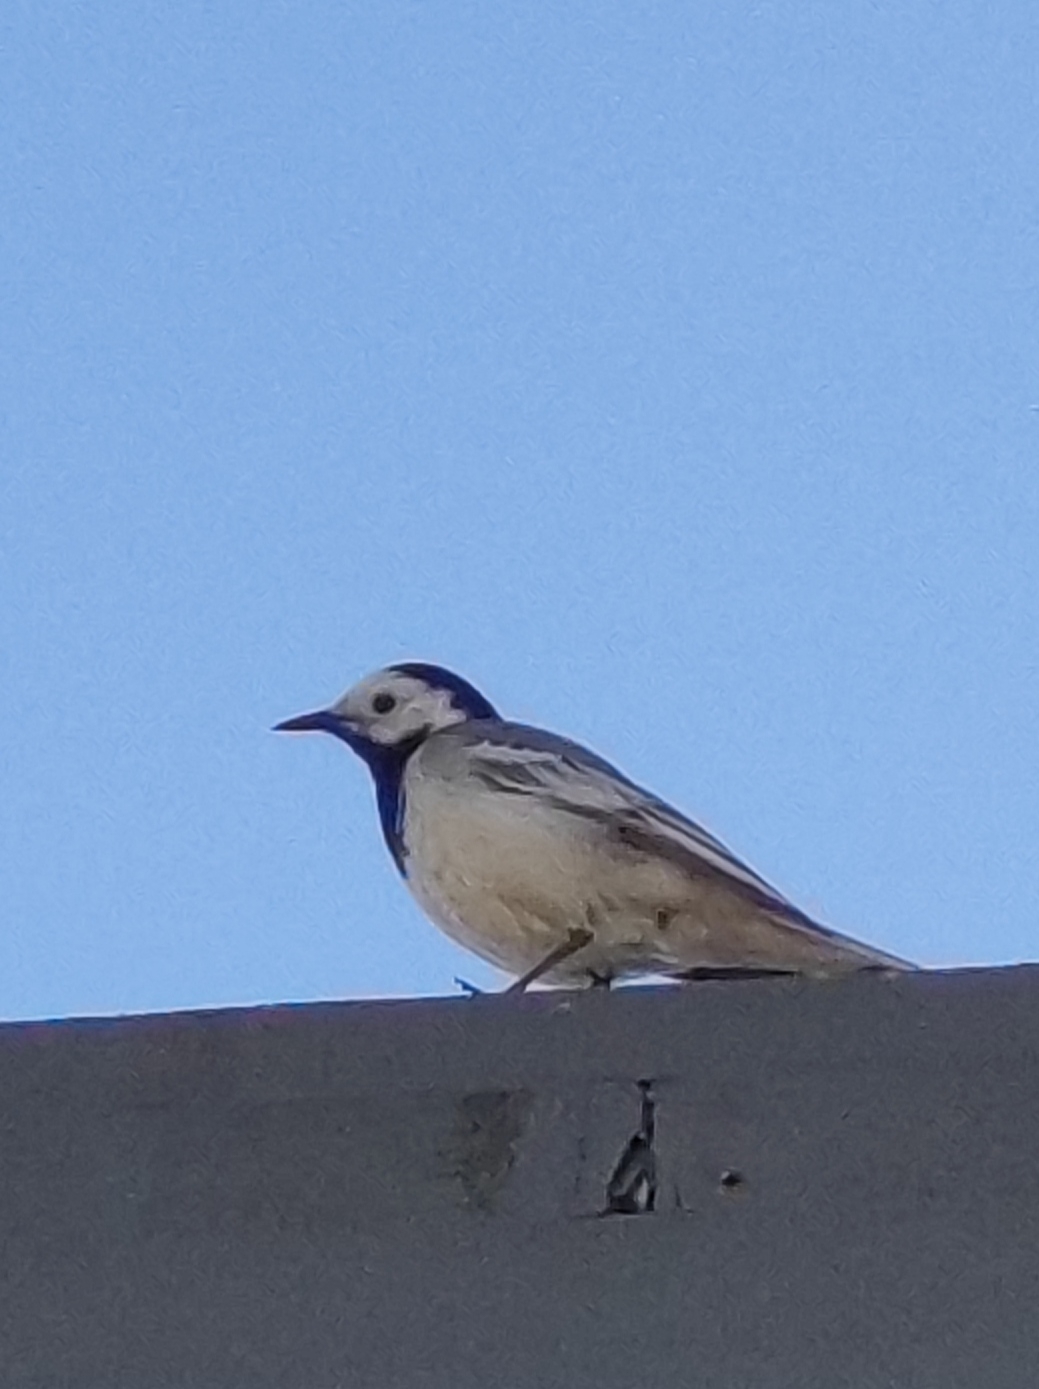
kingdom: Animalia
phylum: Chordata
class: Aves
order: Passeriformes
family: Motacillidae
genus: Motacilla
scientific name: Motacilla alba
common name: White wagtail
